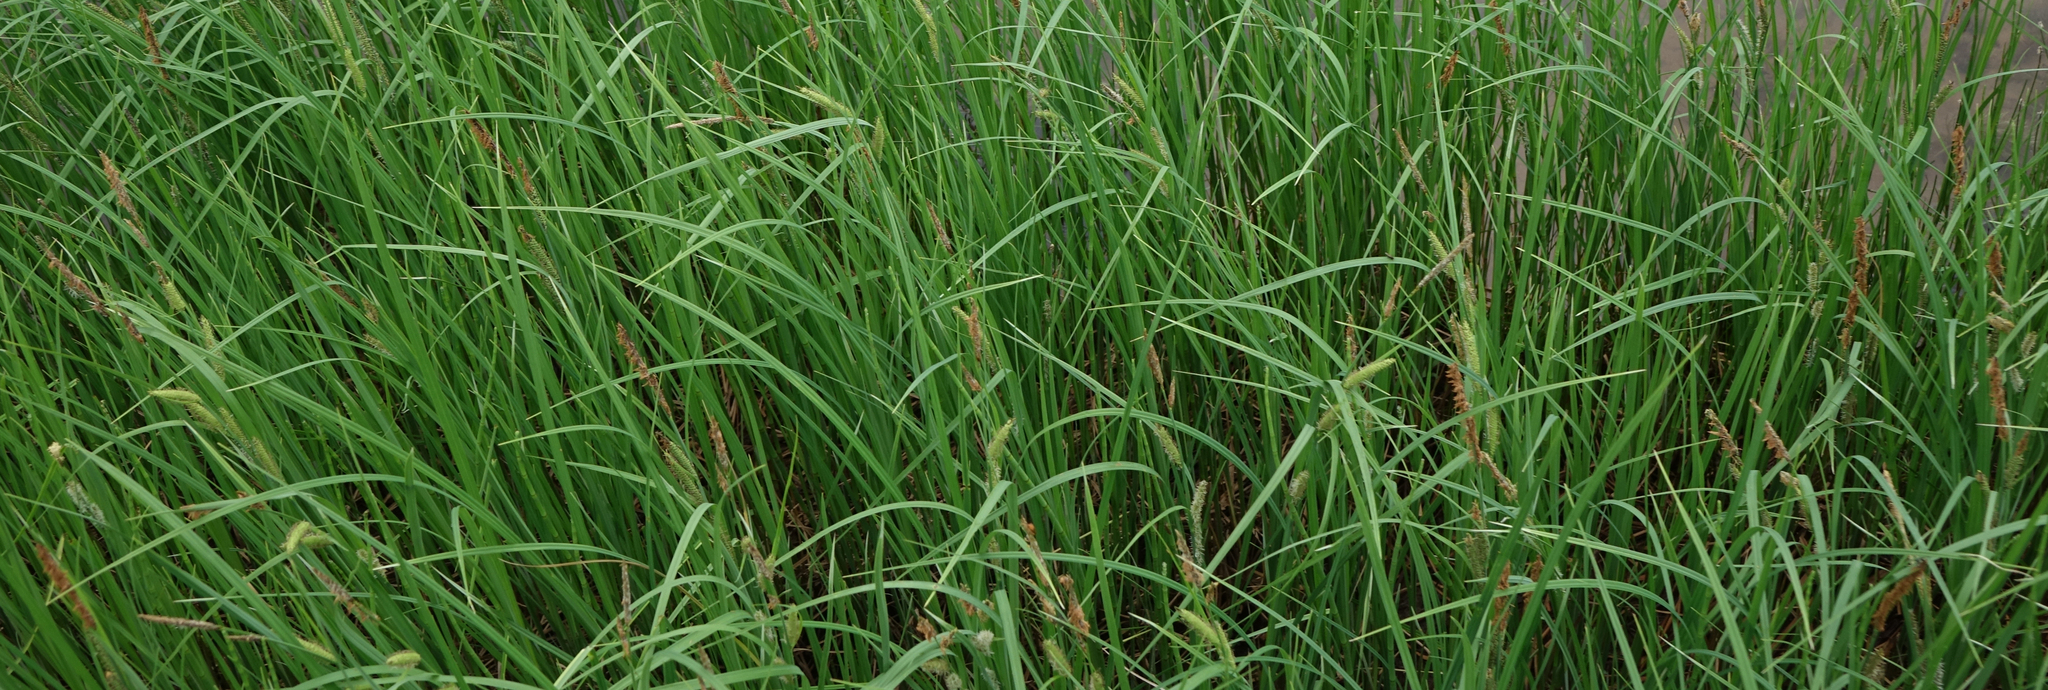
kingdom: Plantae
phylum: Tracheophyta
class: Liliopsida
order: Poales
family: Cyperaceae
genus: Carex
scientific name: Carex rostrata
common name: Bottle sedge
